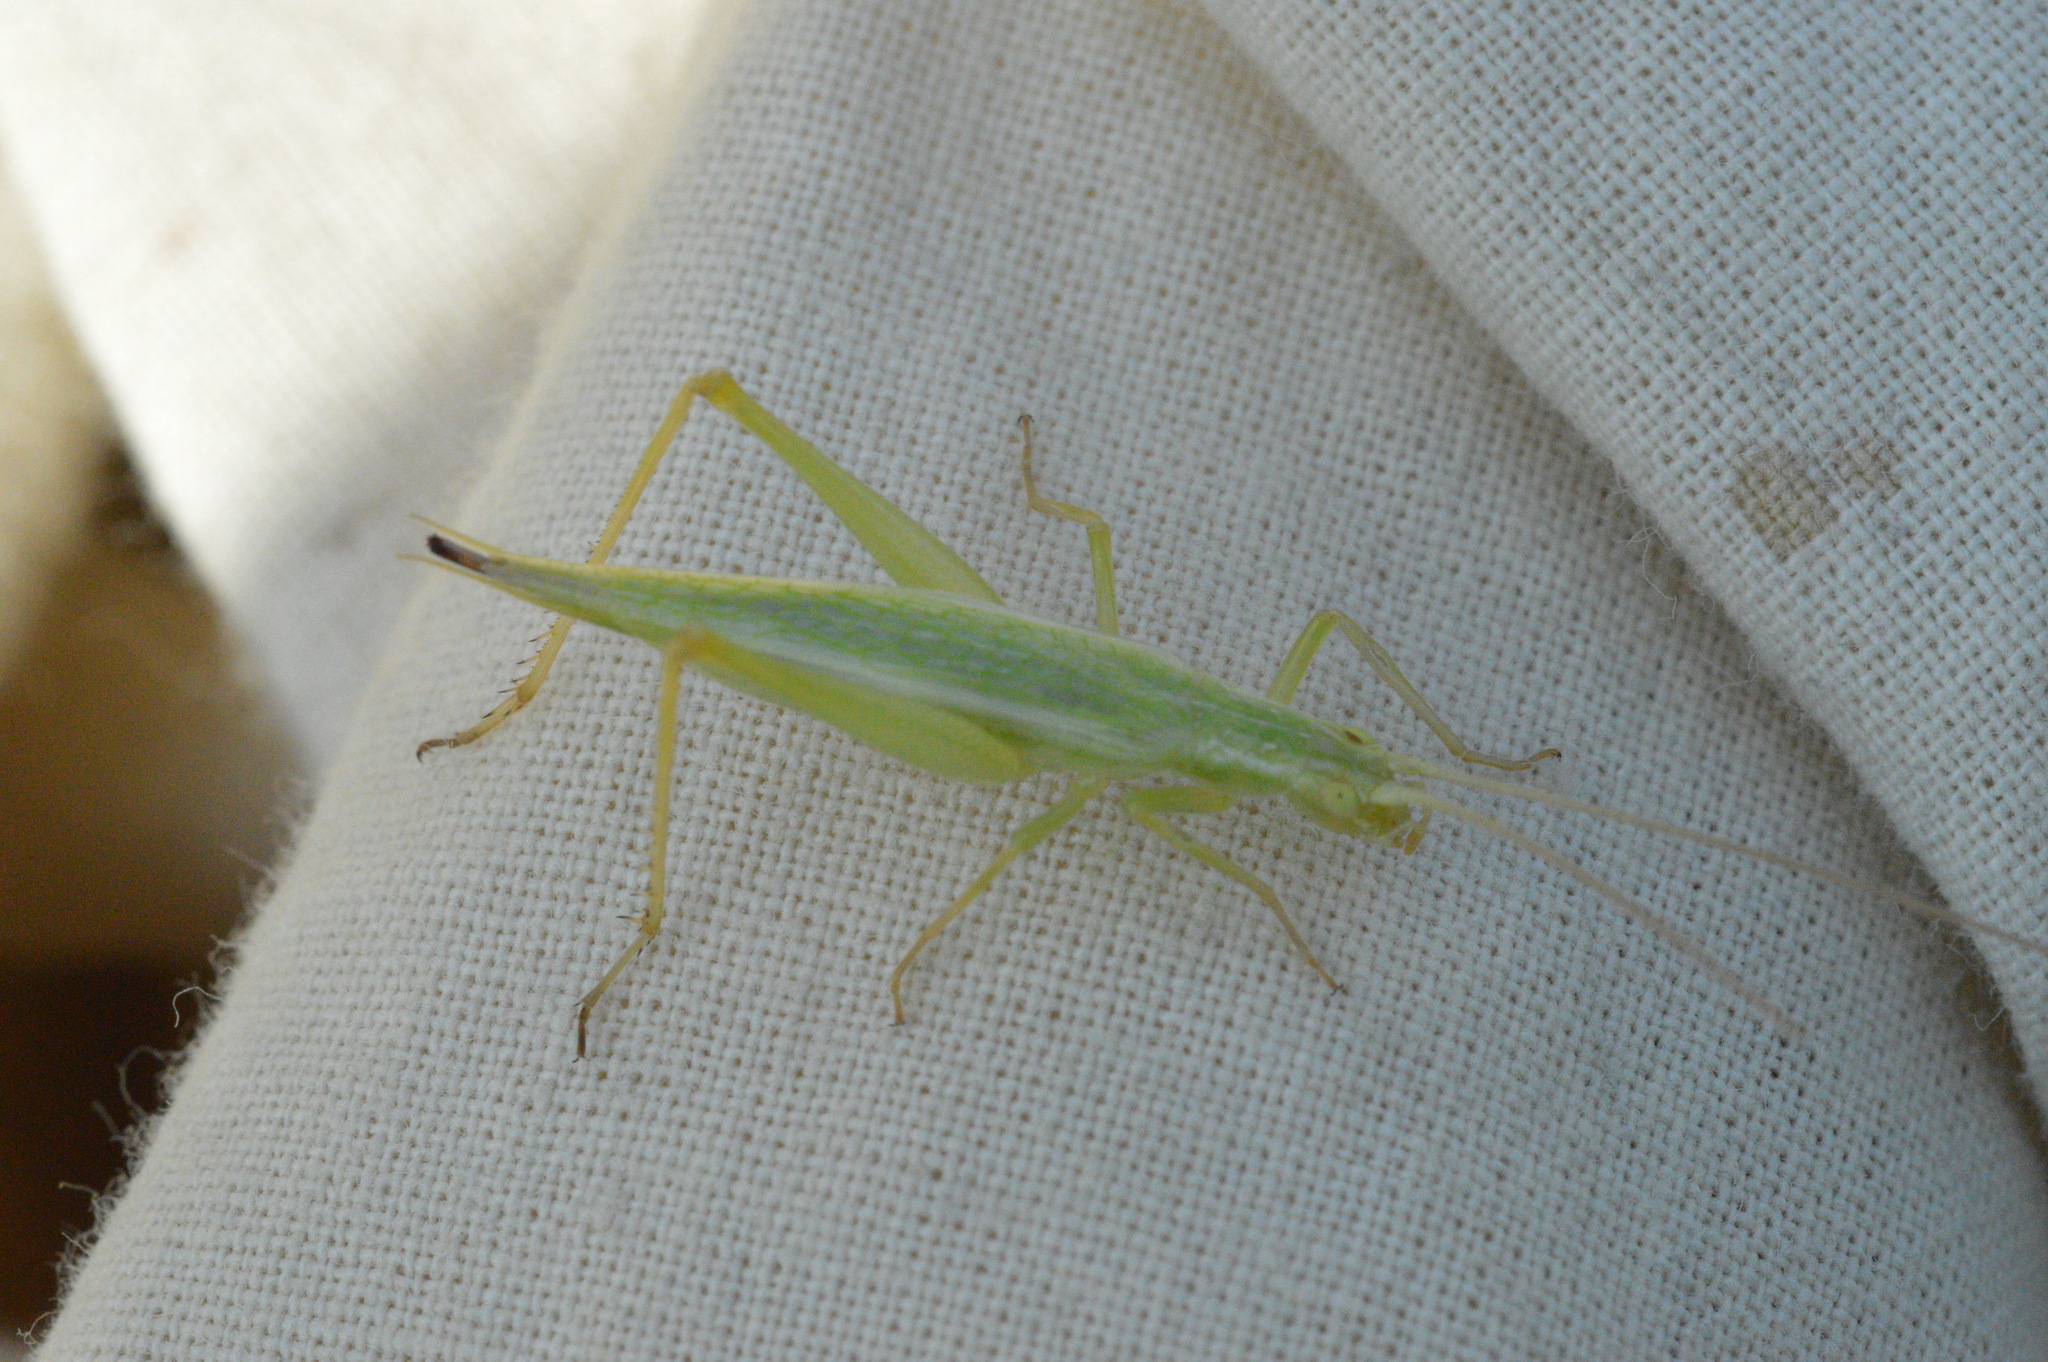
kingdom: Animalia
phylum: Arthropoda
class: Insecta
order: Orthoptera
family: Gryllidae
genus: Oecanthus
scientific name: Oecanthus quadripunctatus
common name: Four-spotted tree cricket
